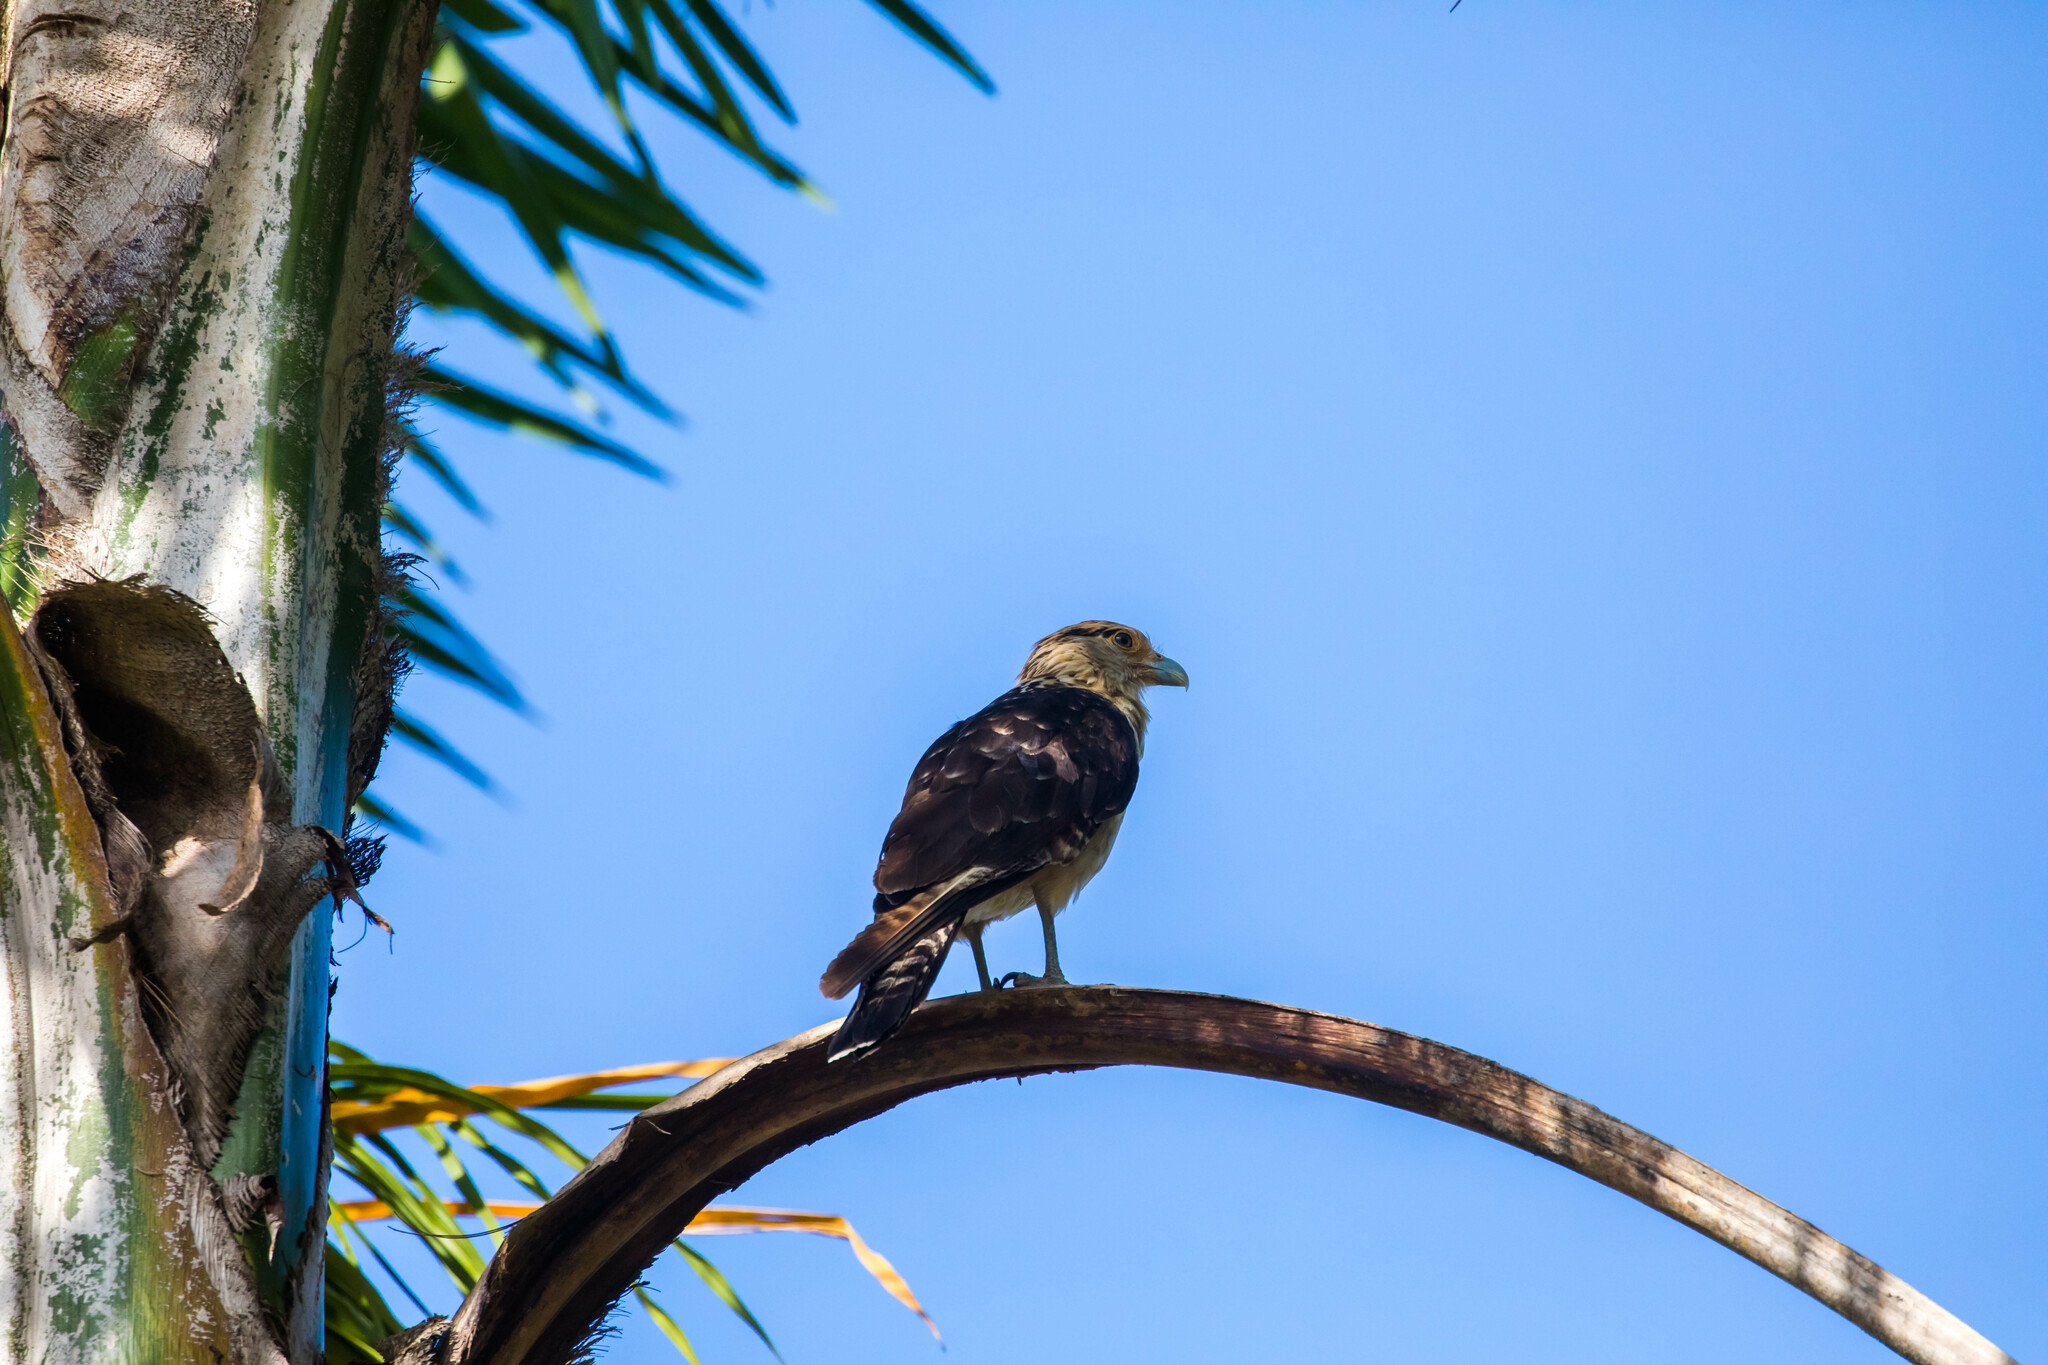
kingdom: Animalia
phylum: Chordata
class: Aves
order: Falconiformes
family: Falconidae
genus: Daptrius
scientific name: Daptrius
